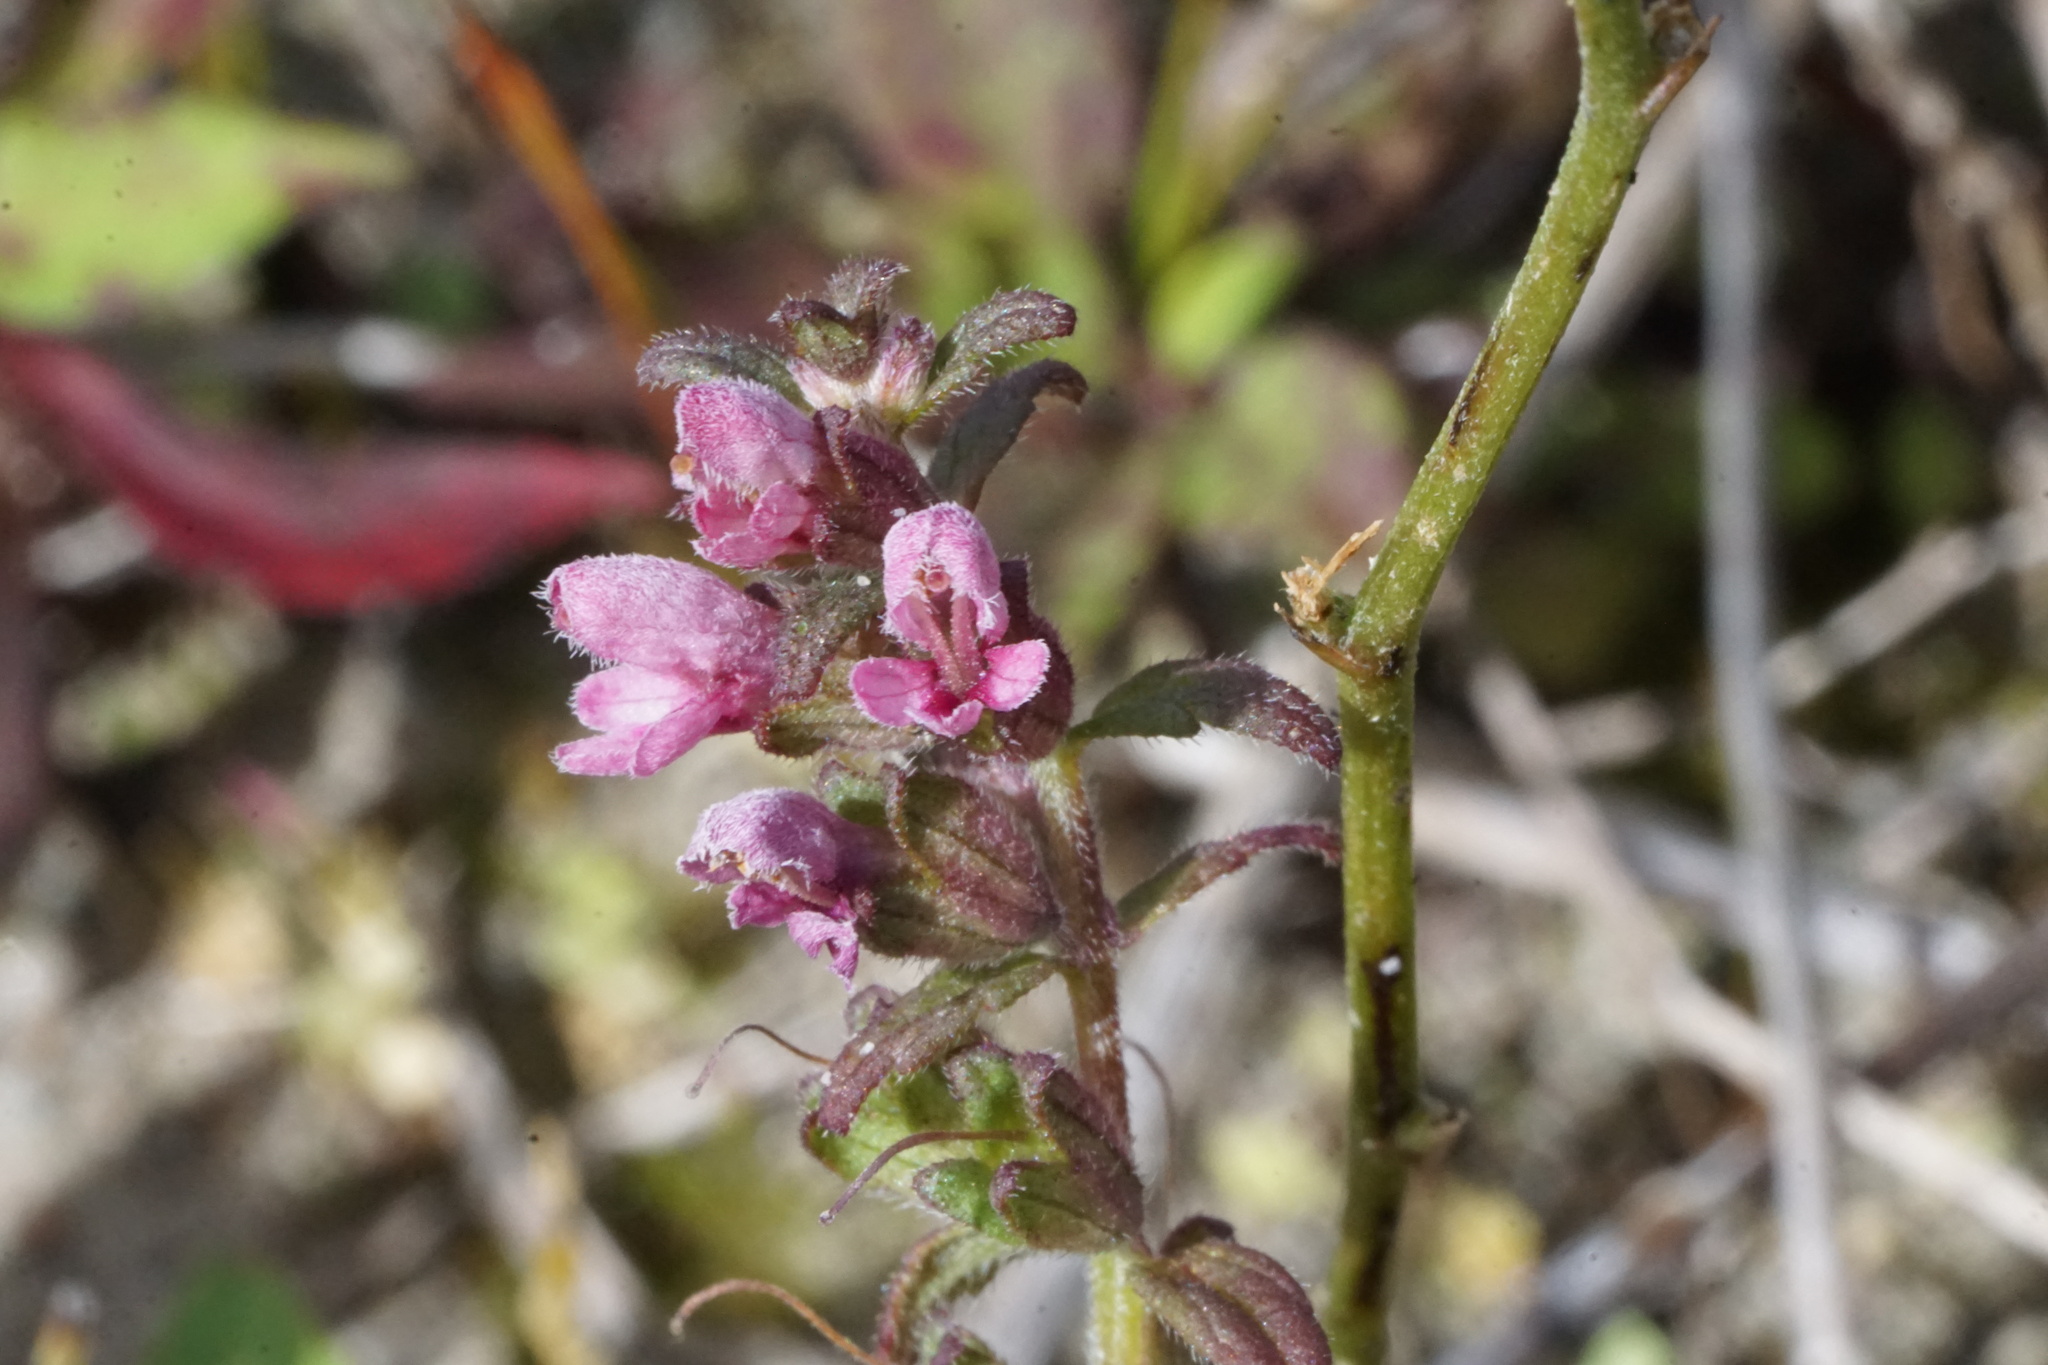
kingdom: Plantae
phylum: Tracheophyta
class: Magnoliopsida
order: Lamiales
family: Orobanchaceae
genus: Odontites
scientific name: Odontites vulgaris
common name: Broomrape
